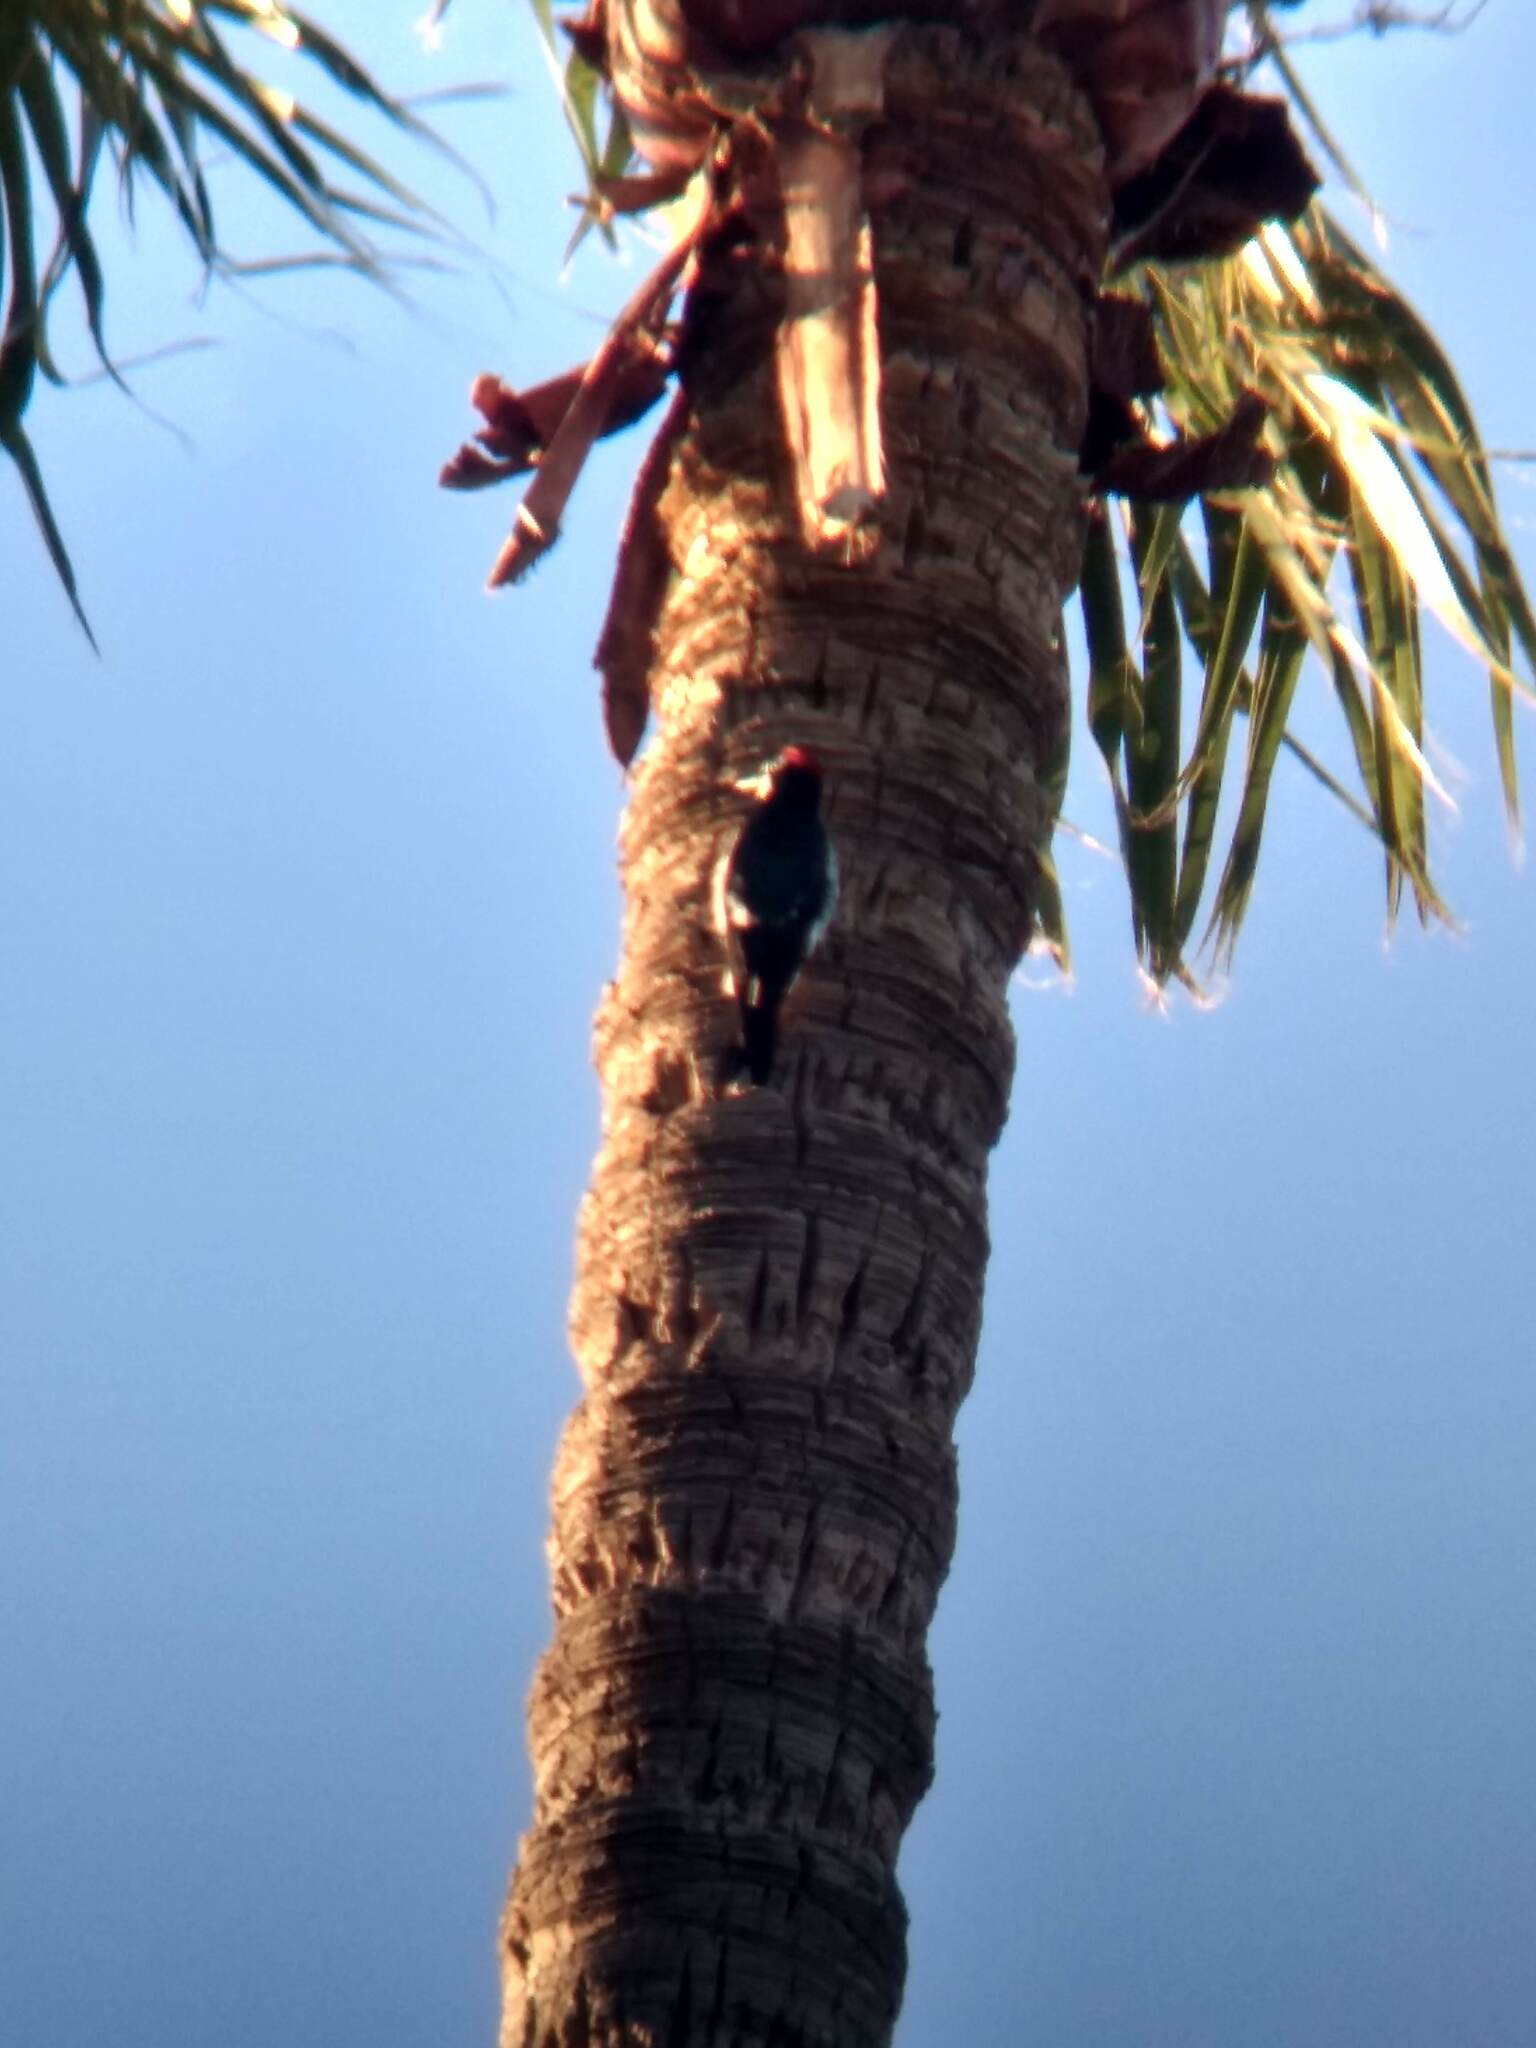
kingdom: Animalia
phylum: Chordata
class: Aves
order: Piciformes
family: Picidae
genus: Melanerpes
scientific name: Melanerpes formicivorus
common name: Acorn woodpecker
